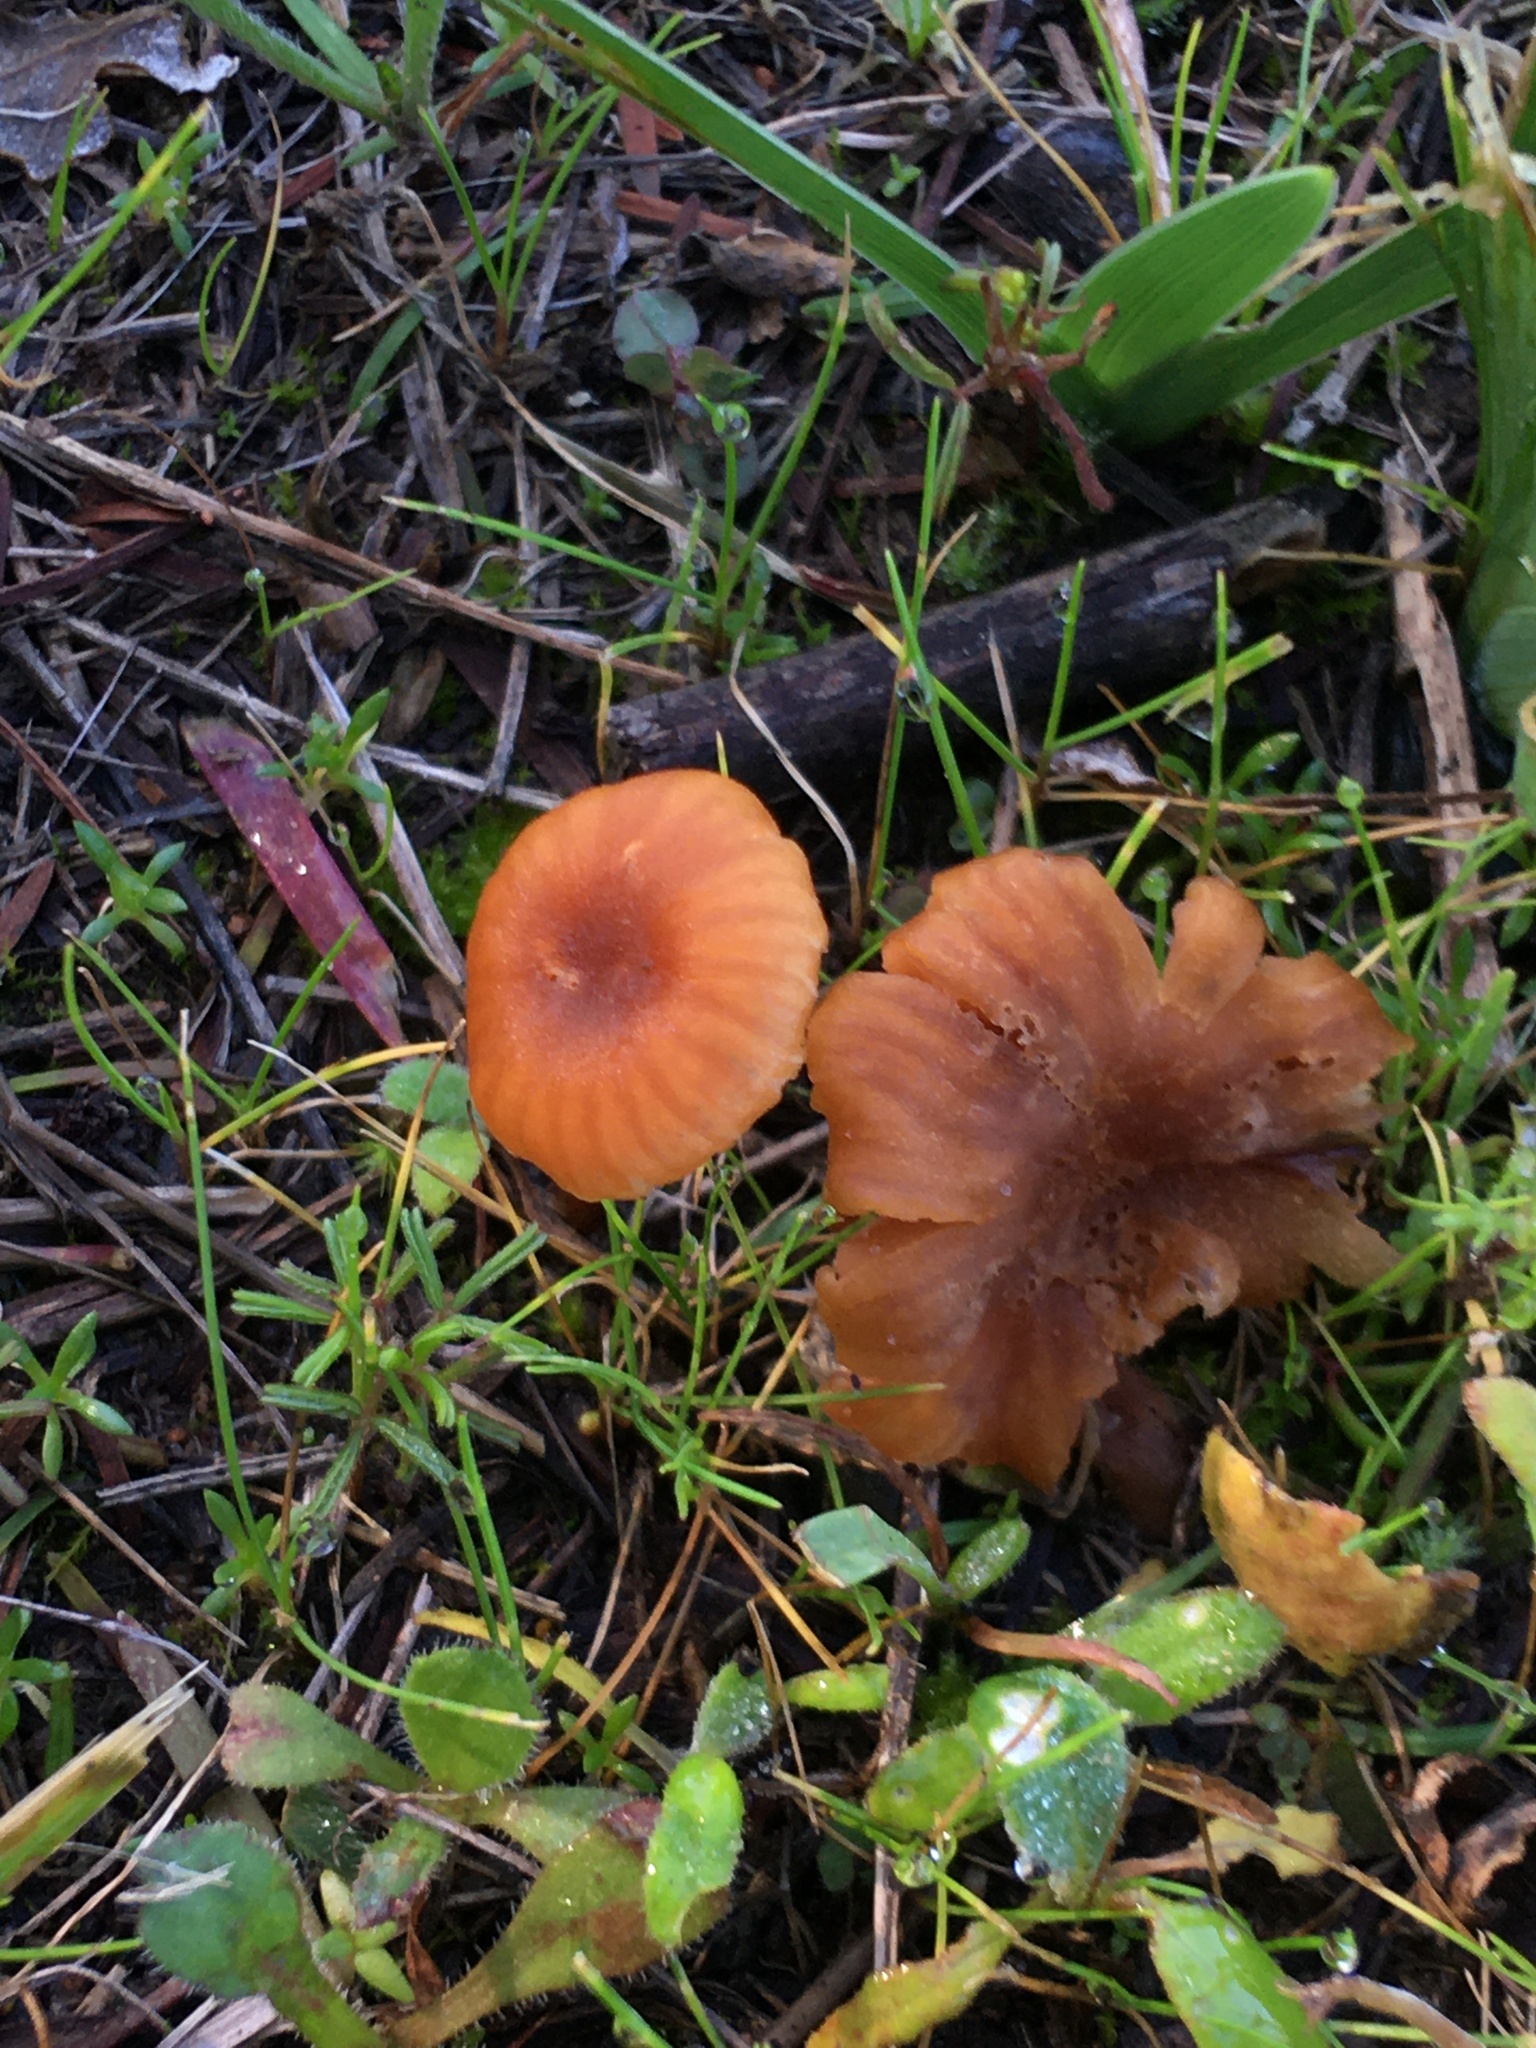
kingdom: Fungi
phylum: Basidiomycota
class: Agaricomycetes
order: Agaricales
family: Hydnangiaceae
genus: Laccaria
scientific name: Laccaria tortilis
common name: Twisted deceiver
